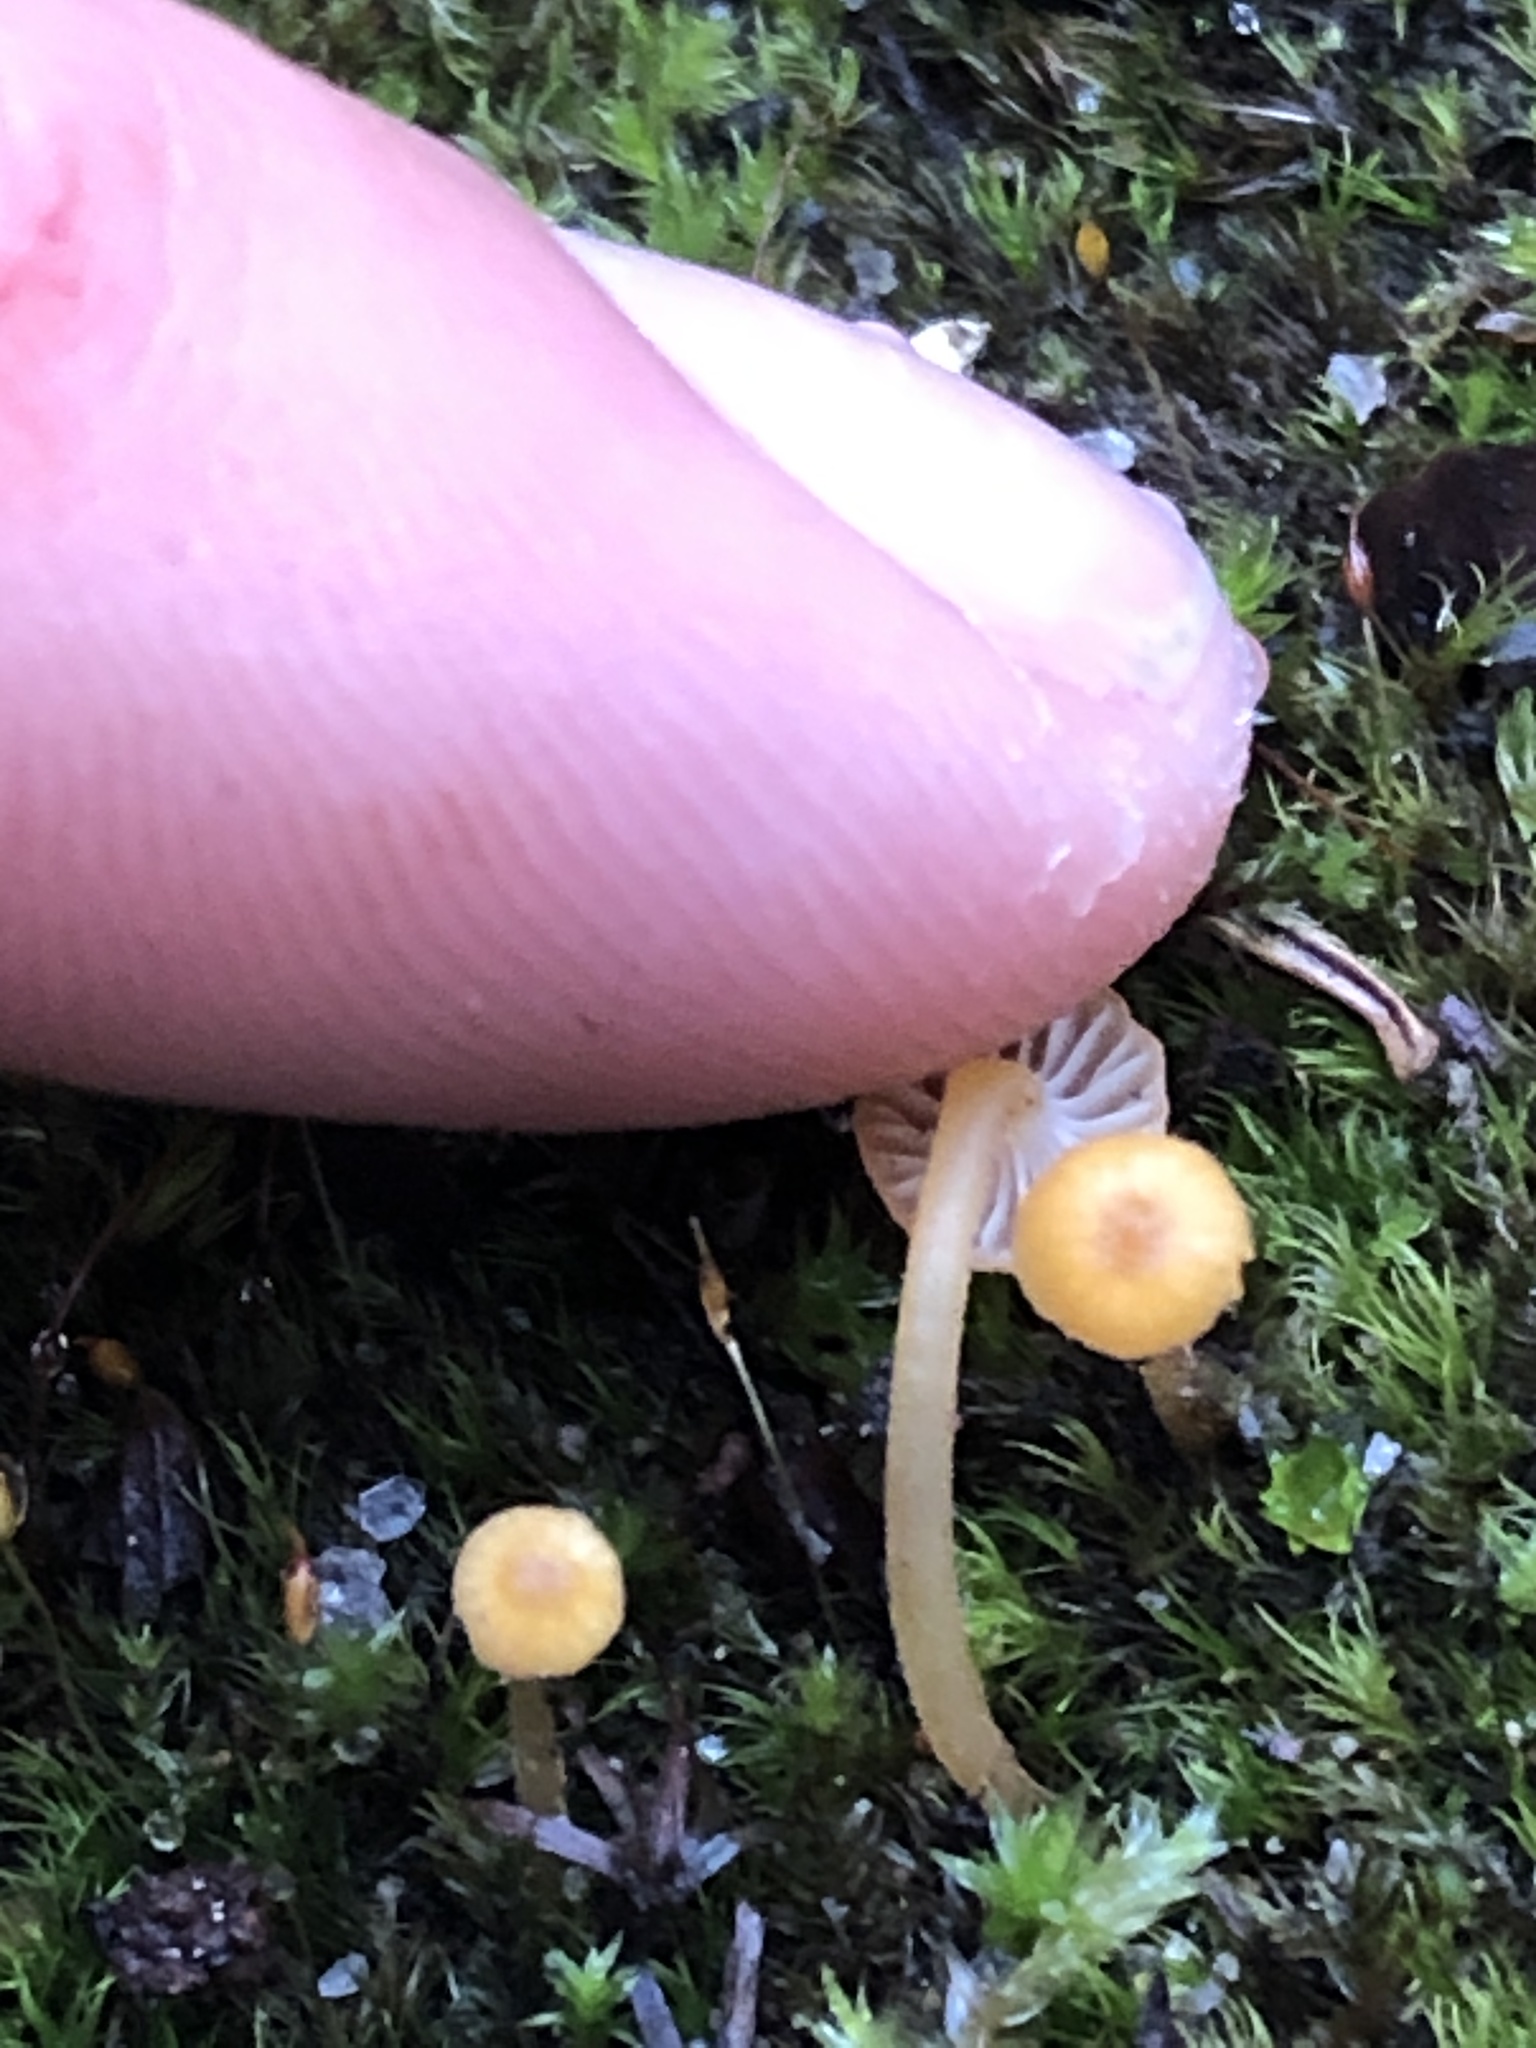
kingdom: Fungi
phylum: Basidiomycota
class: Agaricomycetes
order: Hymenochaetales
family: Rickenellaceae
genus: Rickenella
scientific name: Rickenella fibula
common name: Orange mosscap
